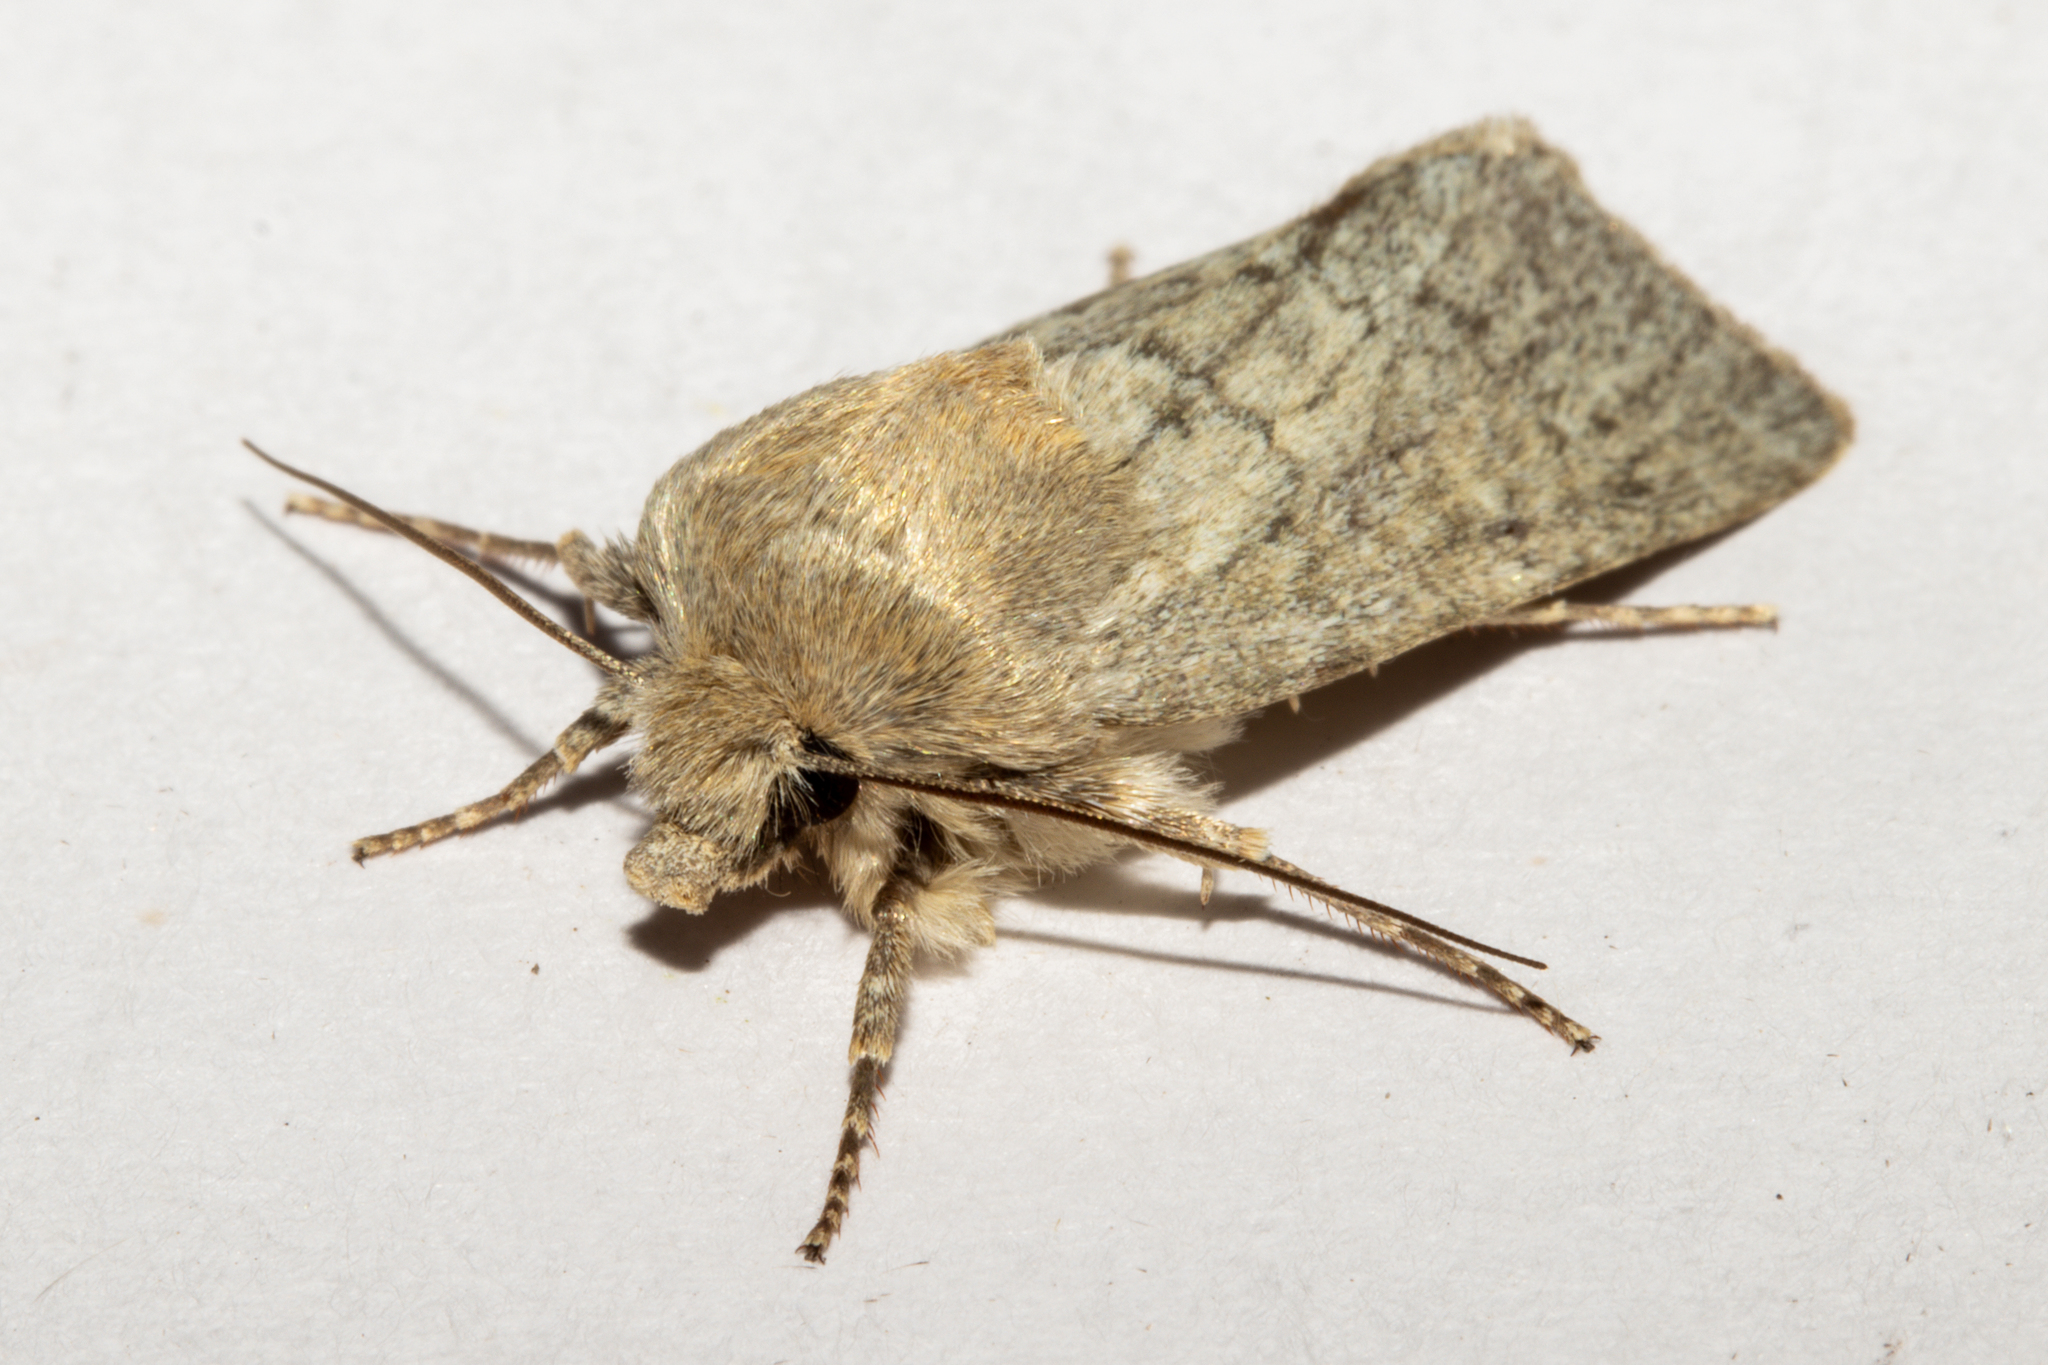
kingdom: Animalia
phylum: Arthropoda
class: Insecta
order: Lepidoptera
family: Noctuidae
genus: Physetica
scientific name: Physetica caerulea
